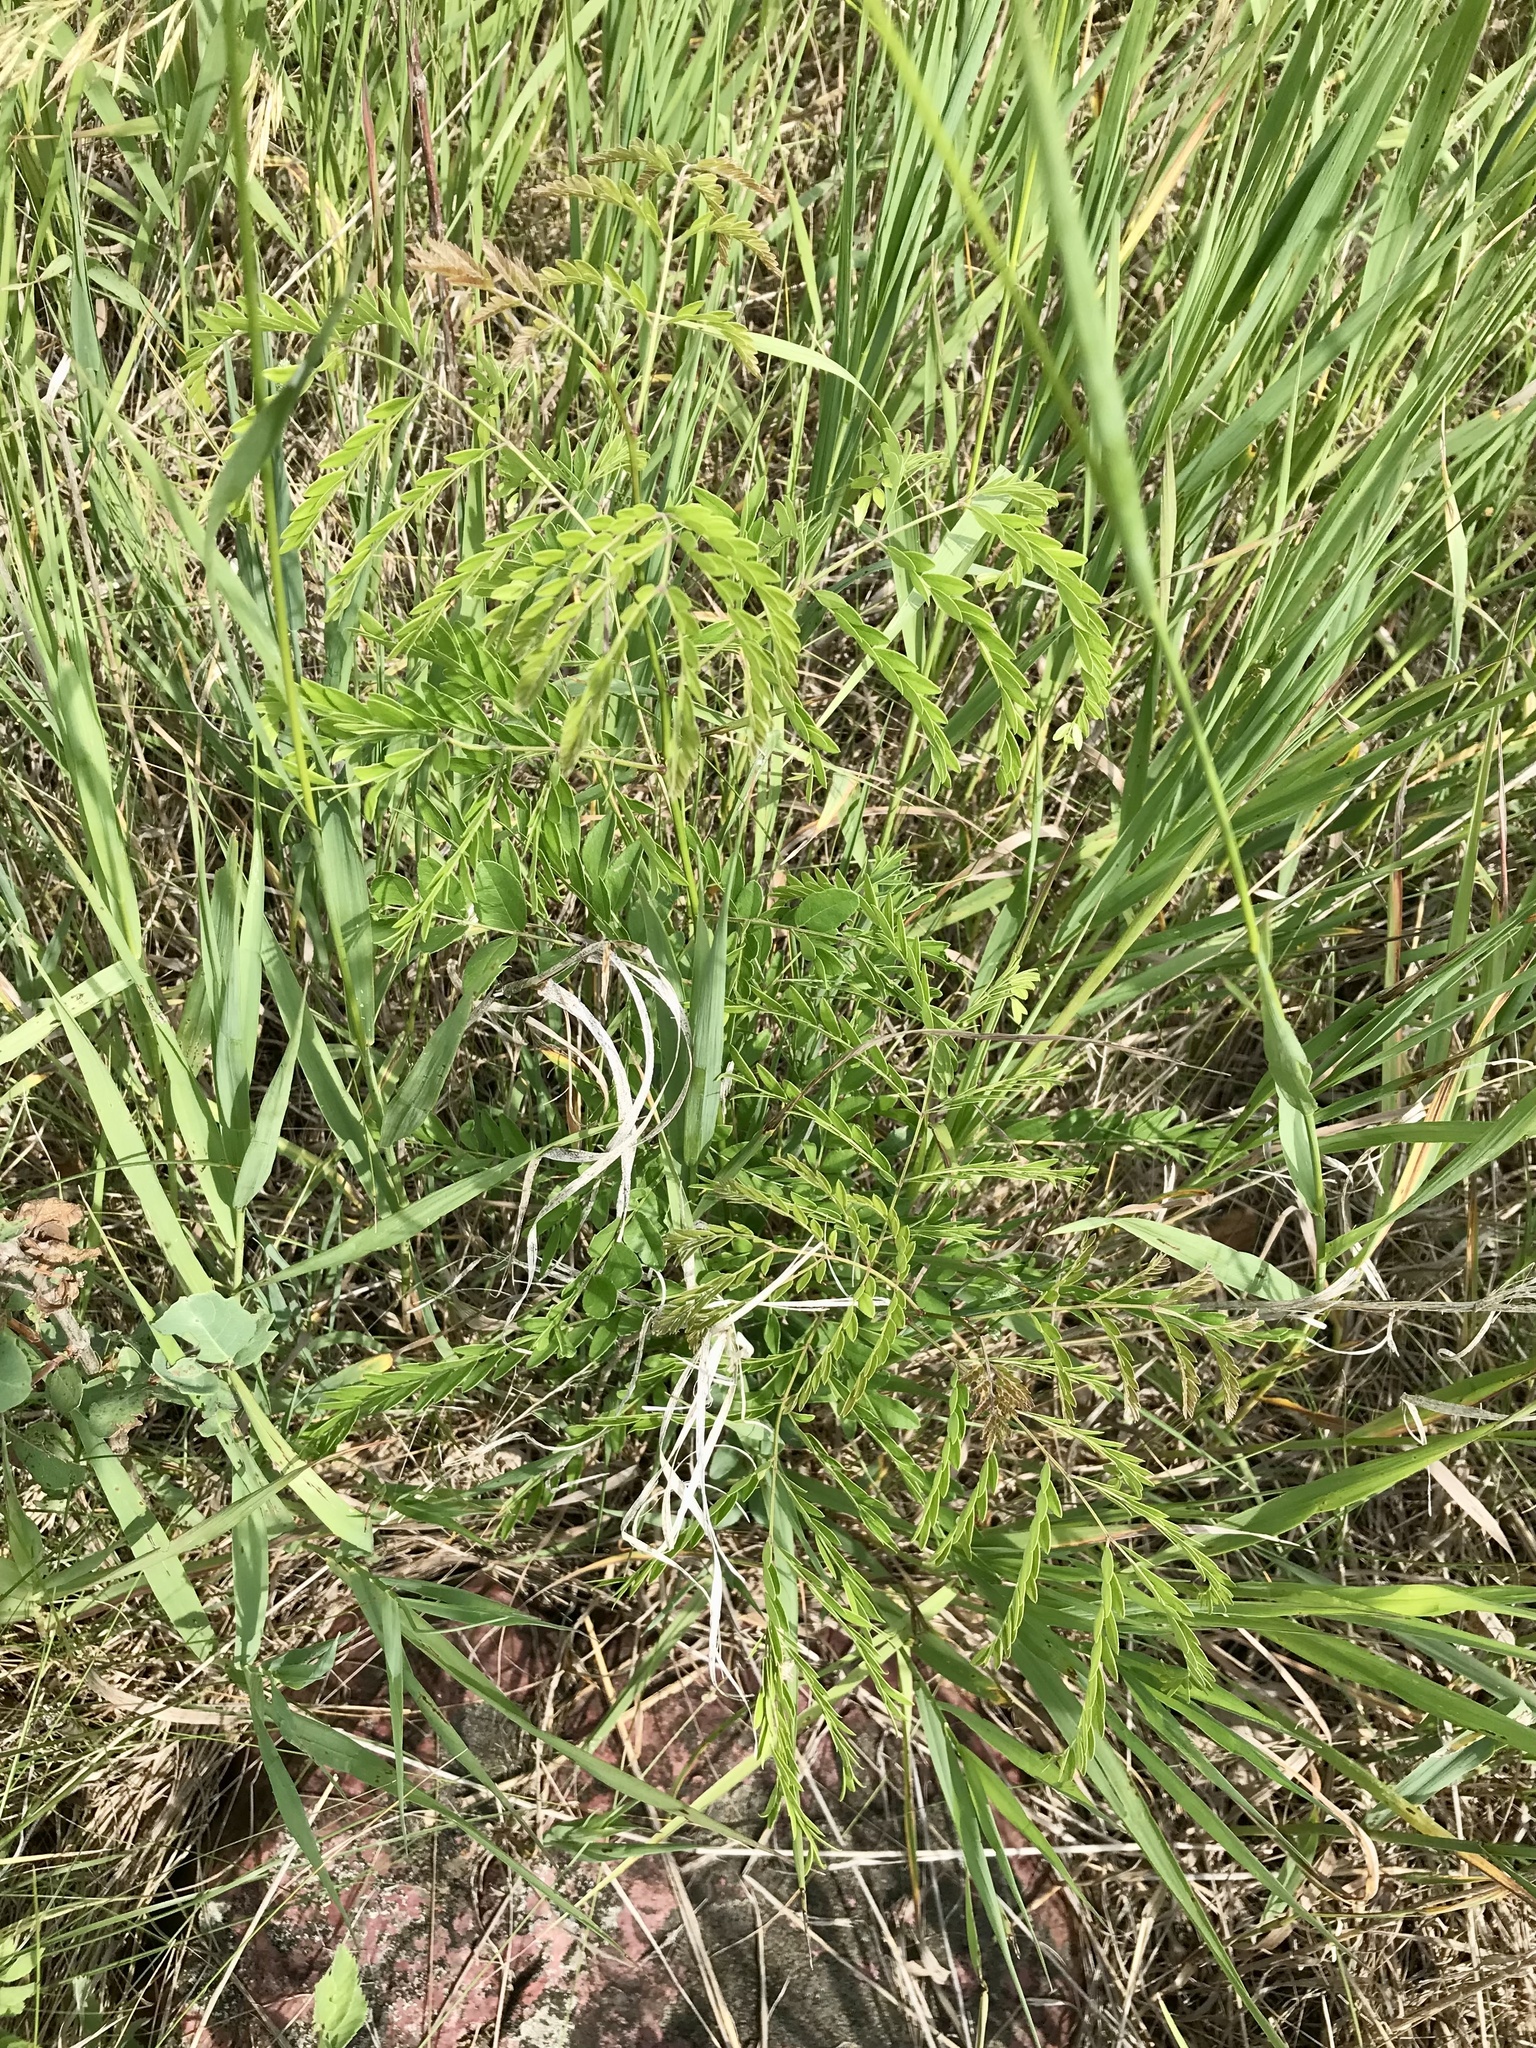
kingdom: Plantae
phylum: Tracheophyta
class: Magnoliopsida
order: Fabales
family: Fabaceae
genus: Gleditsia
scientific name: Gleditsia triacanthos
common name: Common honeylocust
